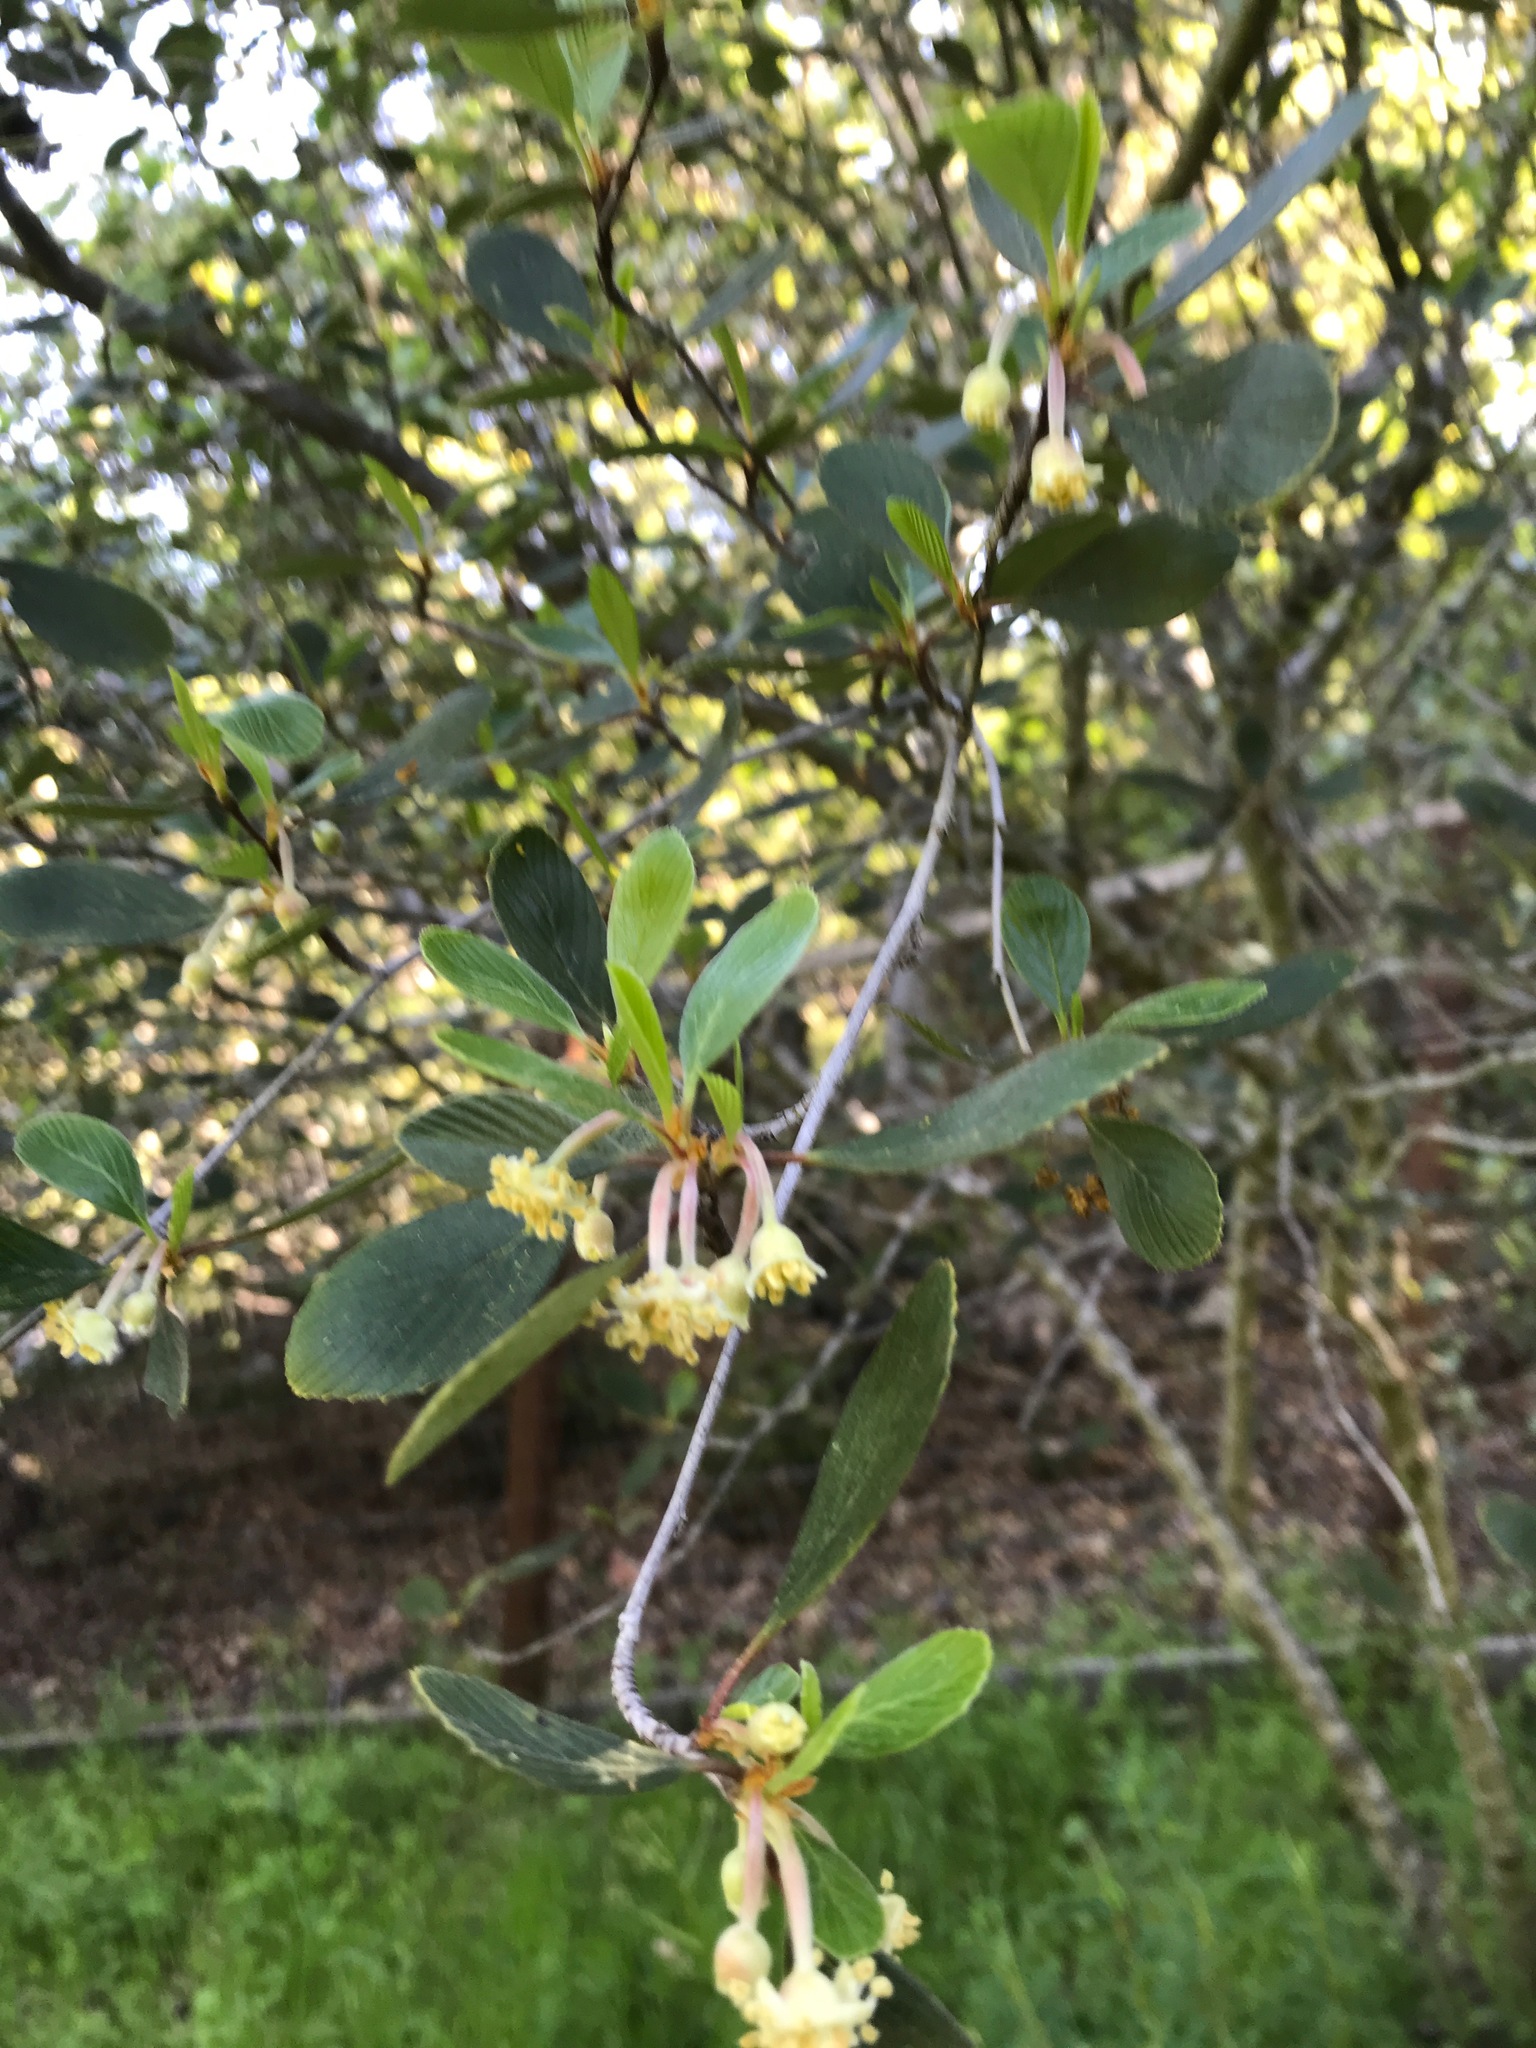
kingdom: Plantae
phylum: Tracheophyta
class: Magnoliopsida
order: Rosales
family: Rosaceae
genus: Cercocarpus
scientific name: Cercocarpus betuloides
